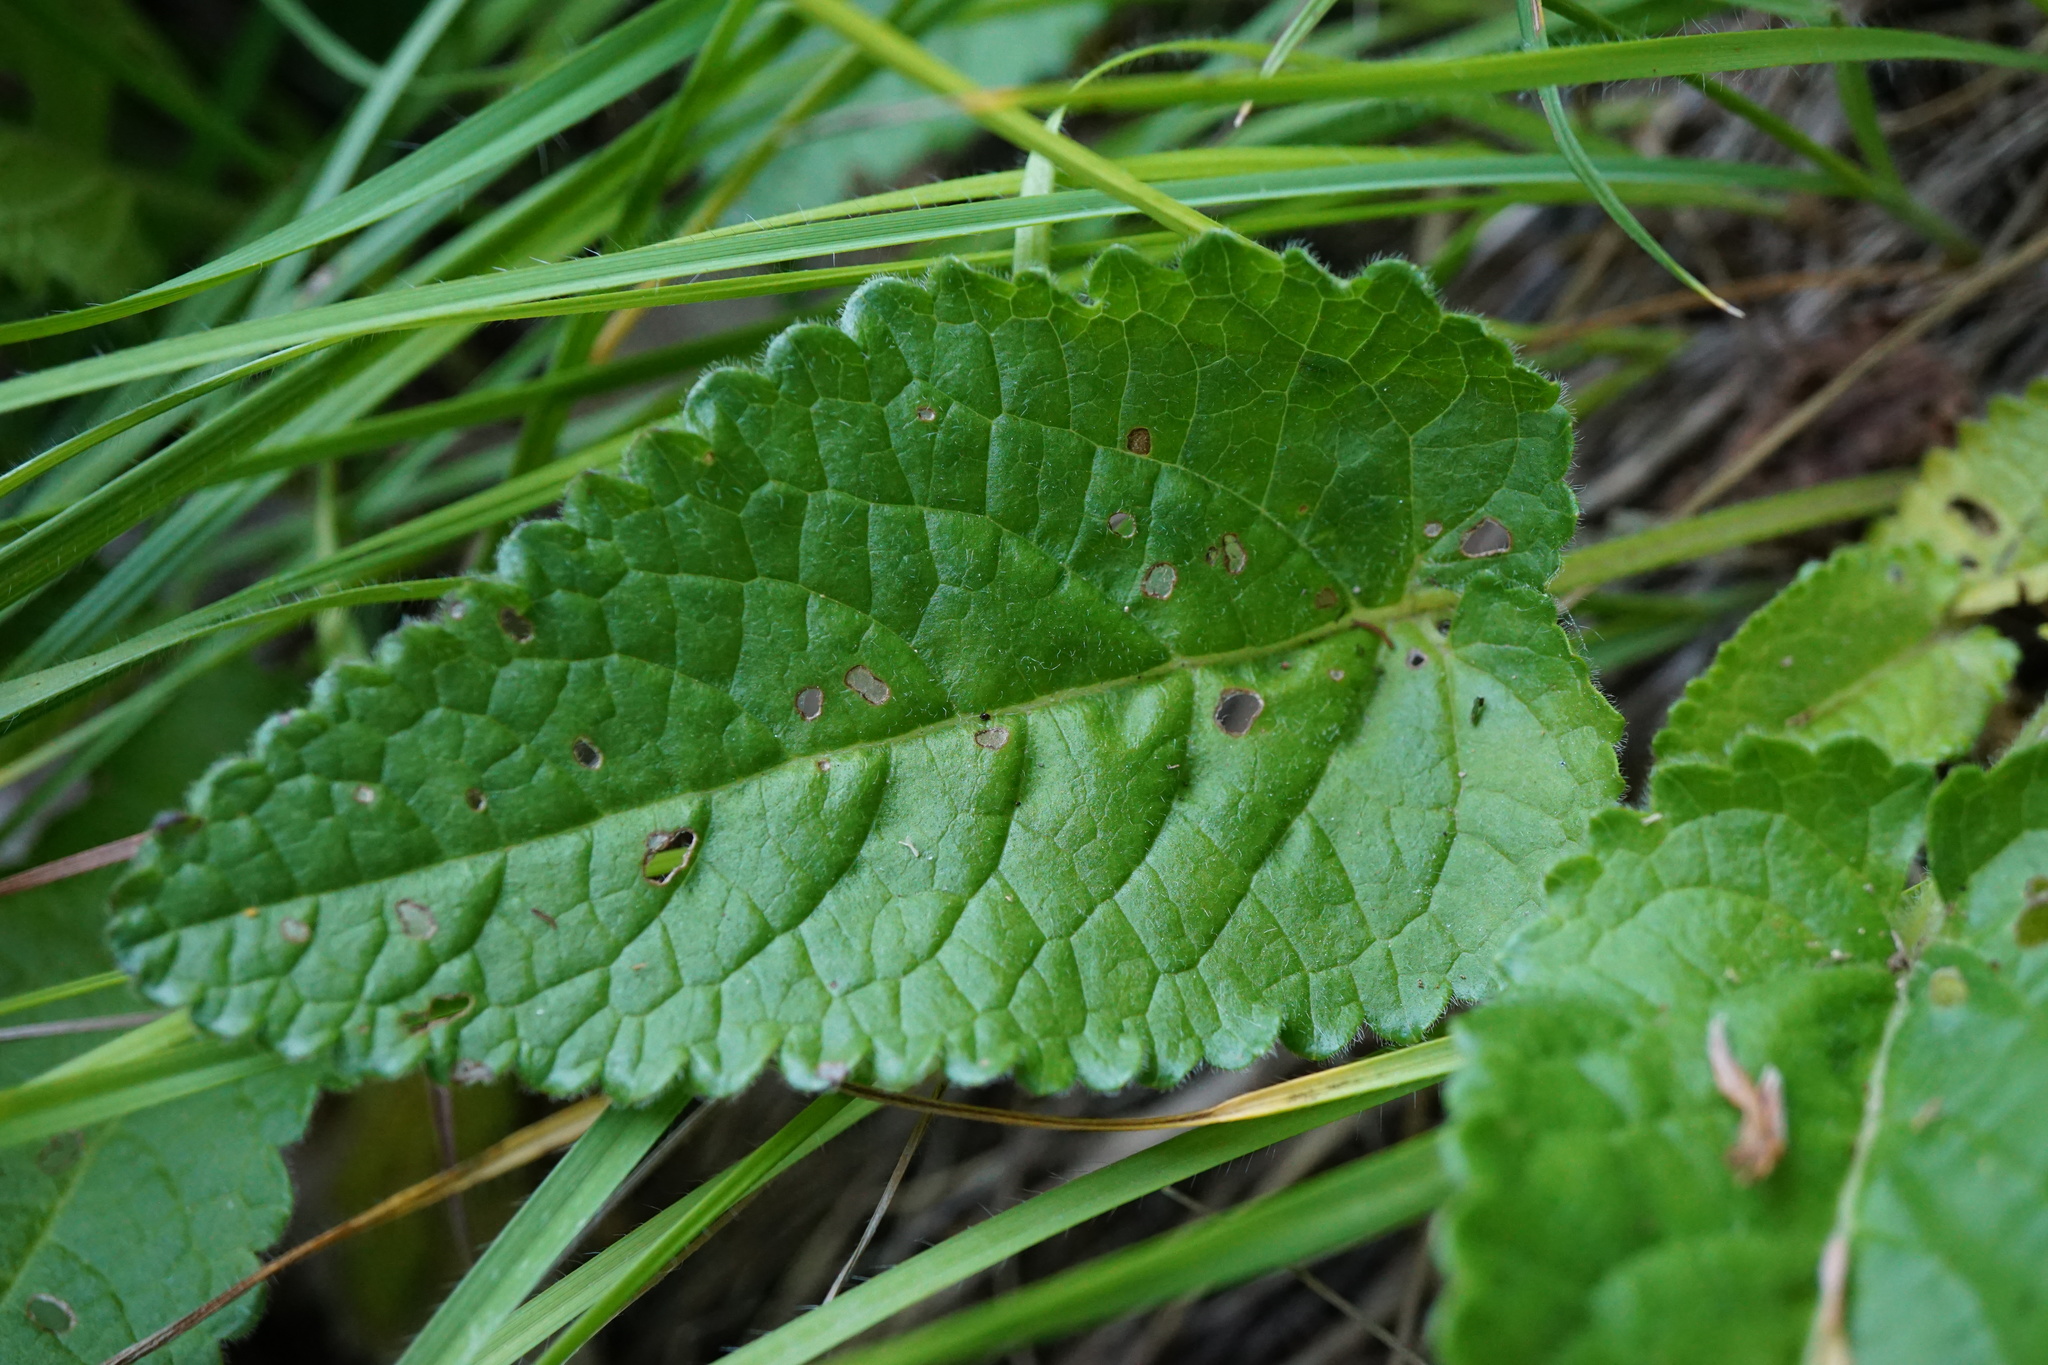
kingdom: Plantae
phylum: Tracheophyta
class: Magnoliopsida
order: Lamiales
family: Lamiaceae
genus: Betonica
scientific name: Betonica officinalis
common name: Bishop's-wort
